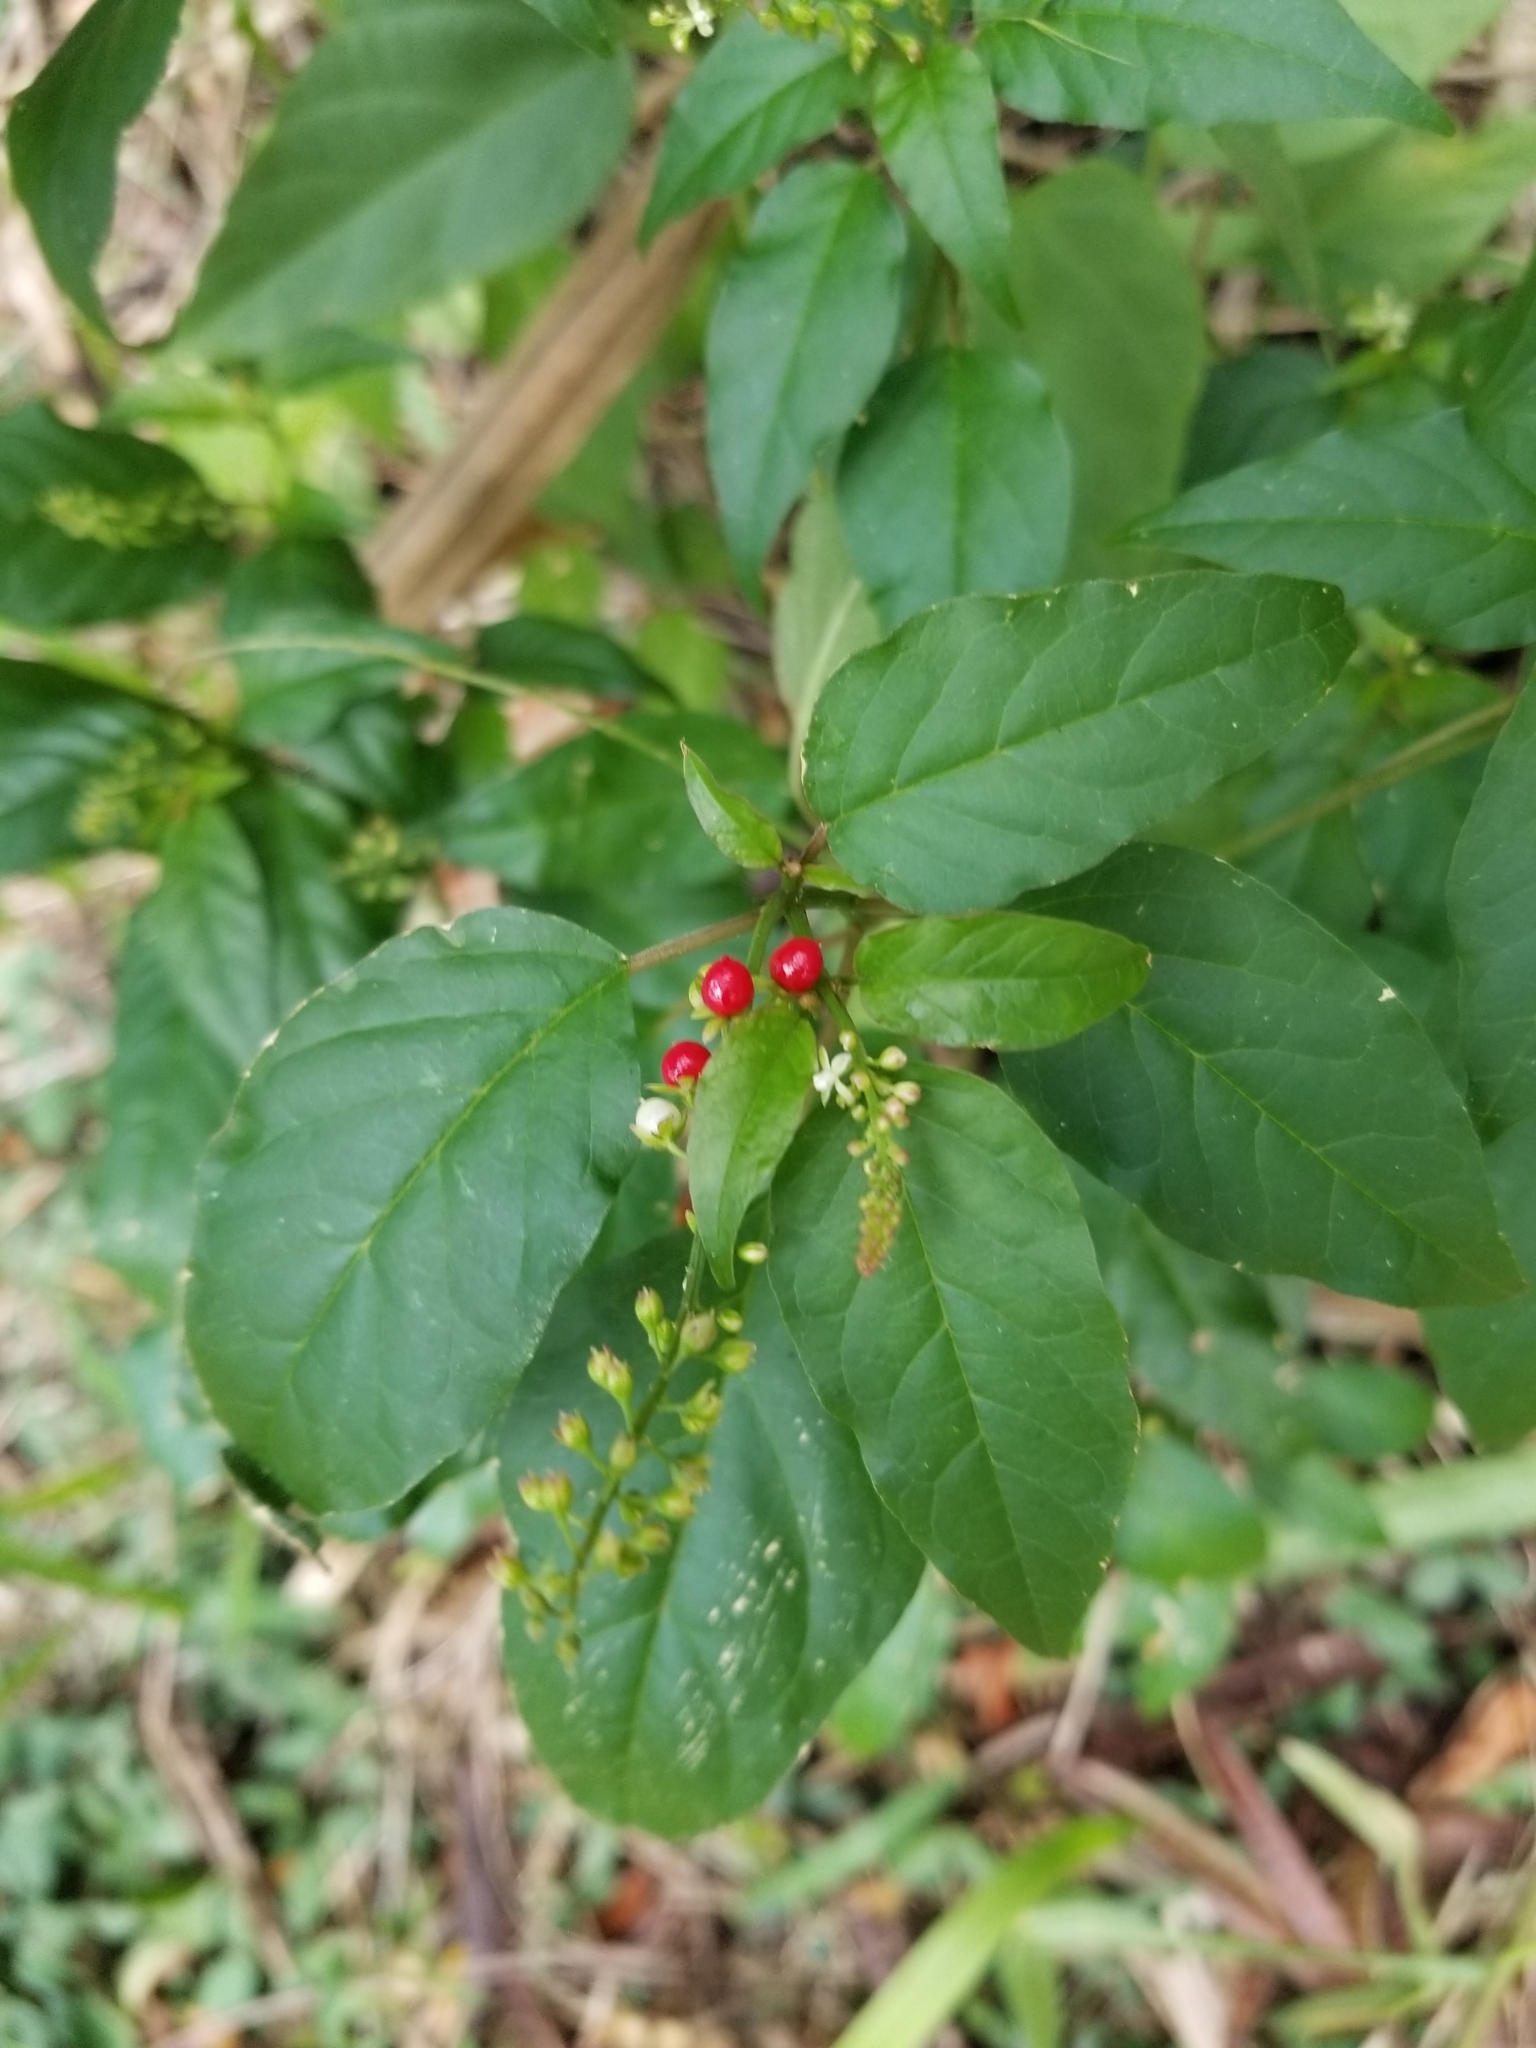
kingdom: Plantae
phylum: Tracheophyta
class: Magnoliopsida
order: Caryophyllales
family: Phytolaccaceae
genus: Rivina
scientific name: Rivina humilis
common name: Rougeplant
